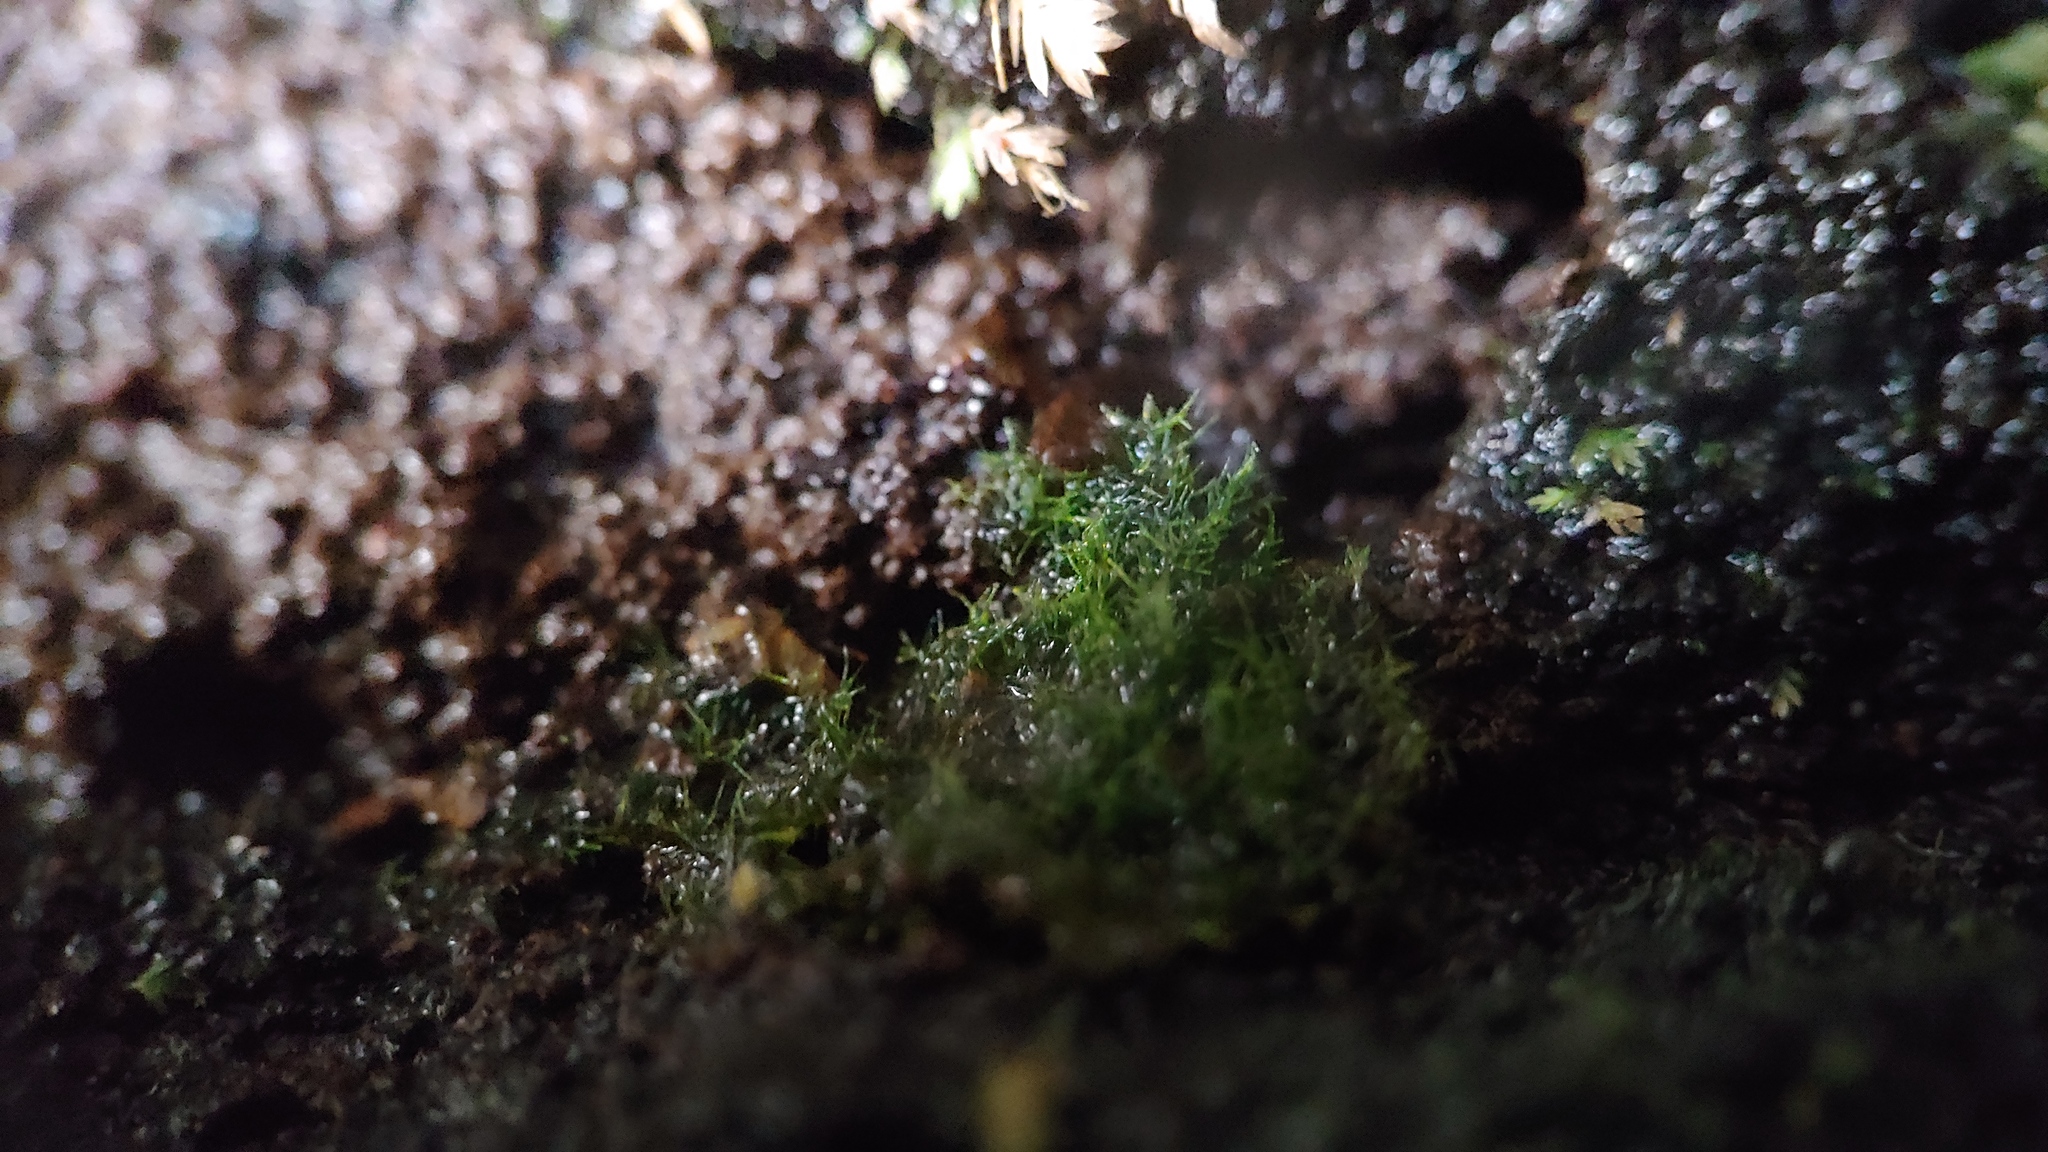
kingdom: Plantae
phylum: Tracheophyta
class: Polypodiopsida
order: Hymenophyllales
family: Hymenophyllaceae
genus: Crepidomanes
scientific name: Crepidomanes intricatum
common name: Weft fern
